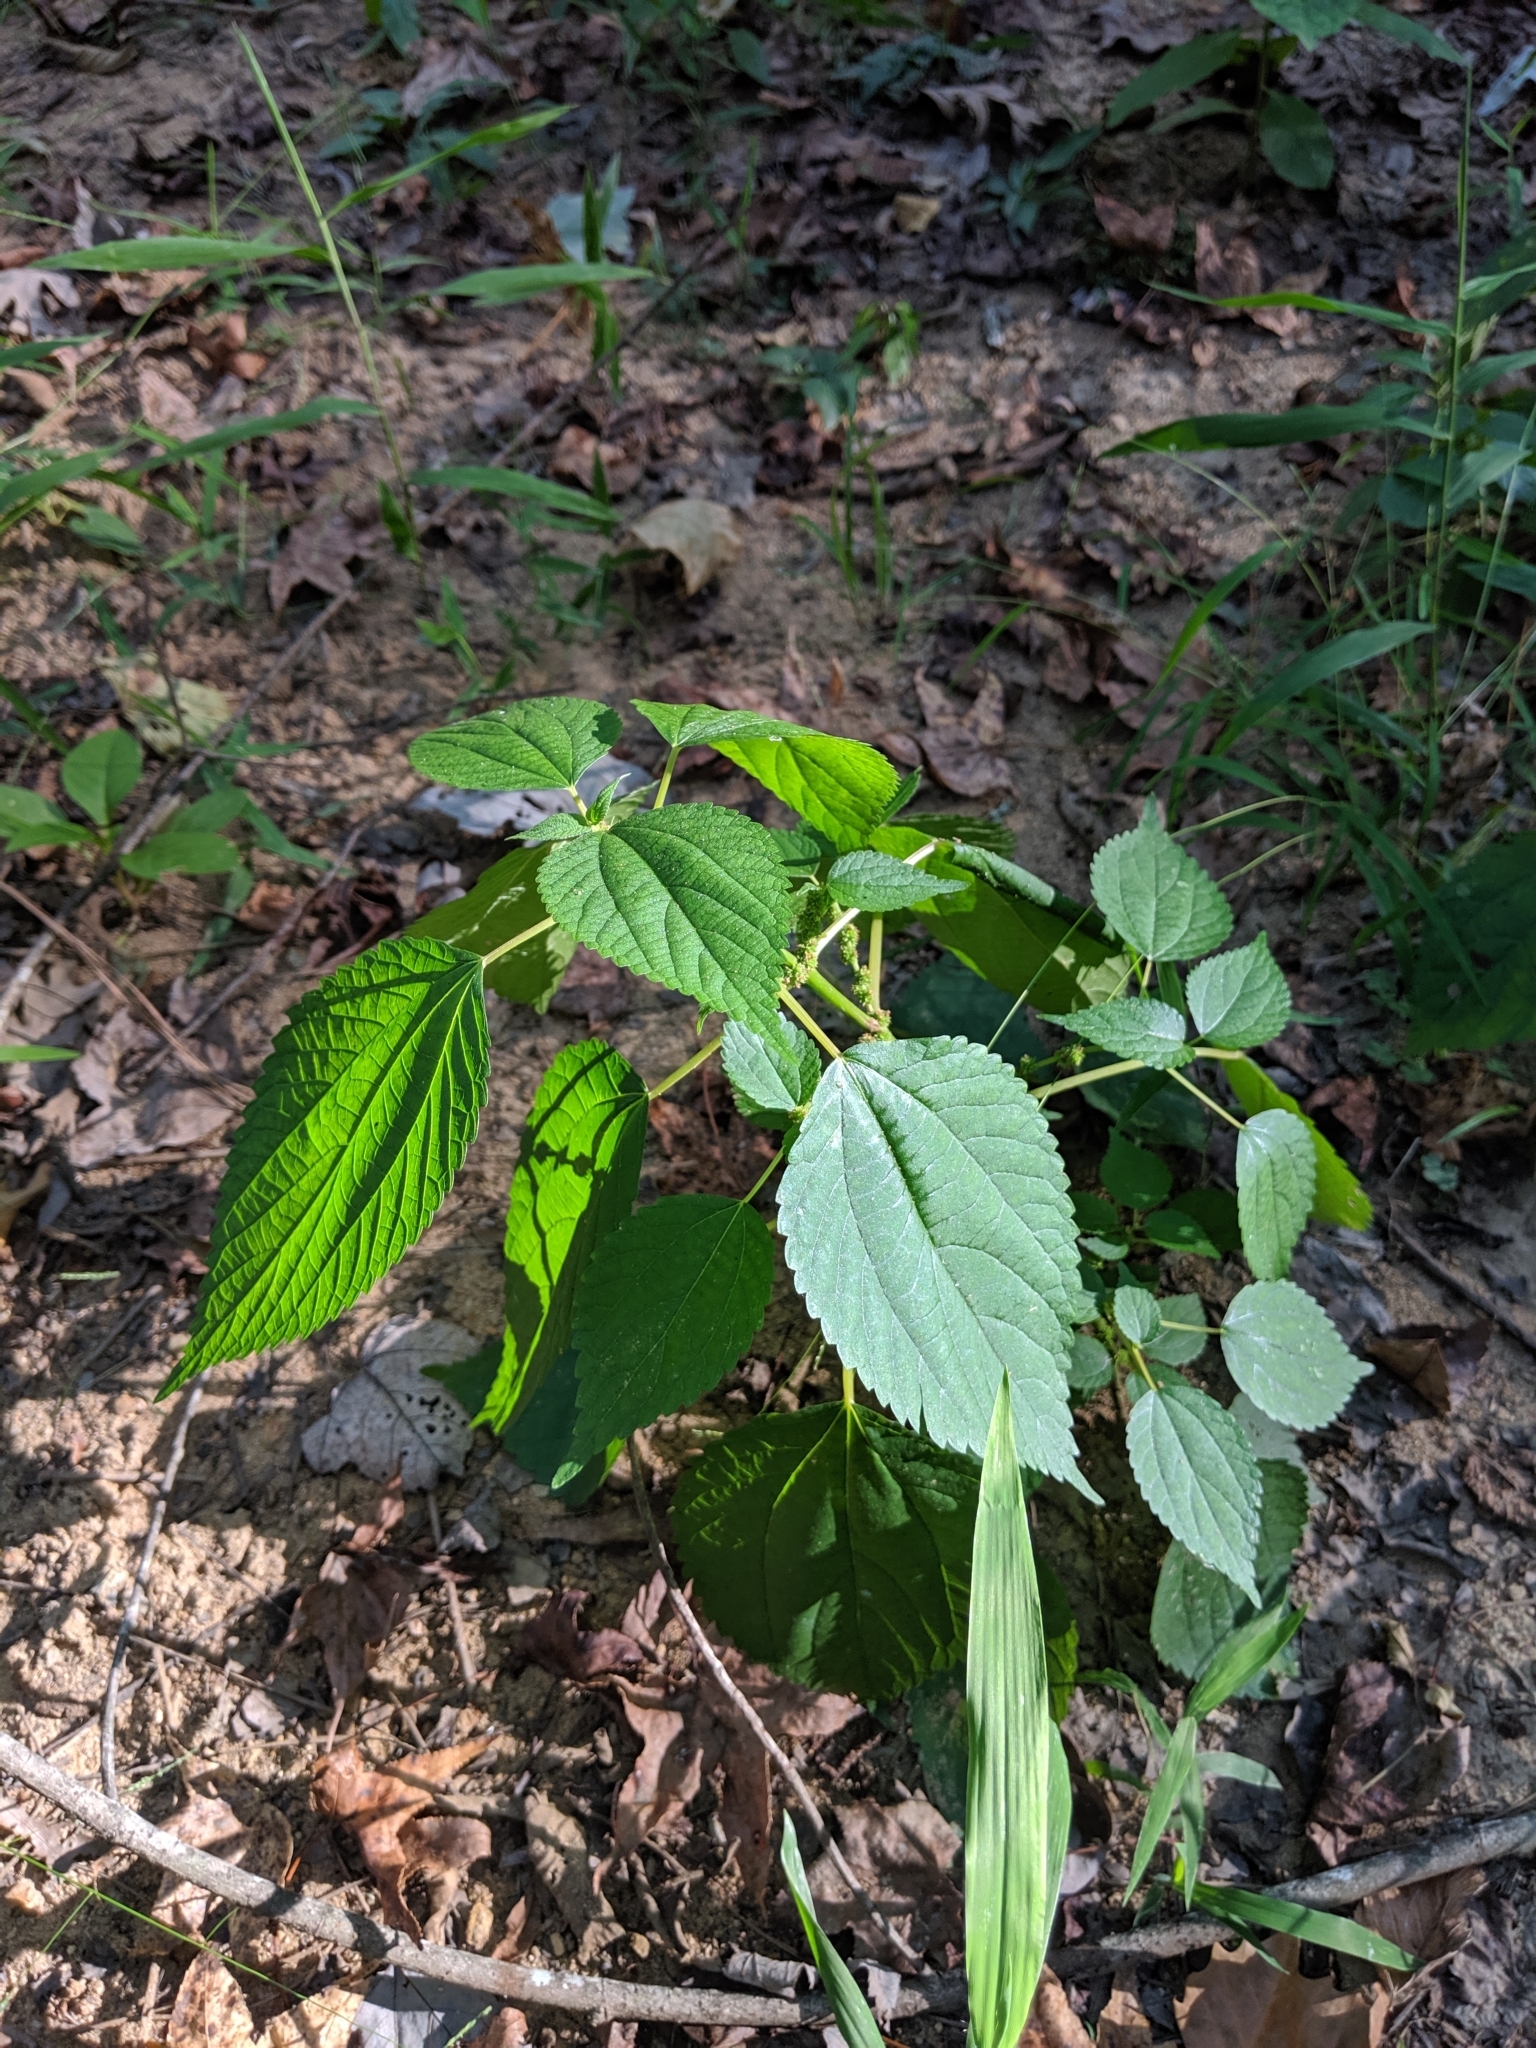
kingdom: Plantae
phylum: Tracheophyta
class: Magnoliopsida
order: Rosales
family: Urticaceae
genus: Boehmeria
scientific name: Boehmeria cylindrica
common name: Bog-hemp
